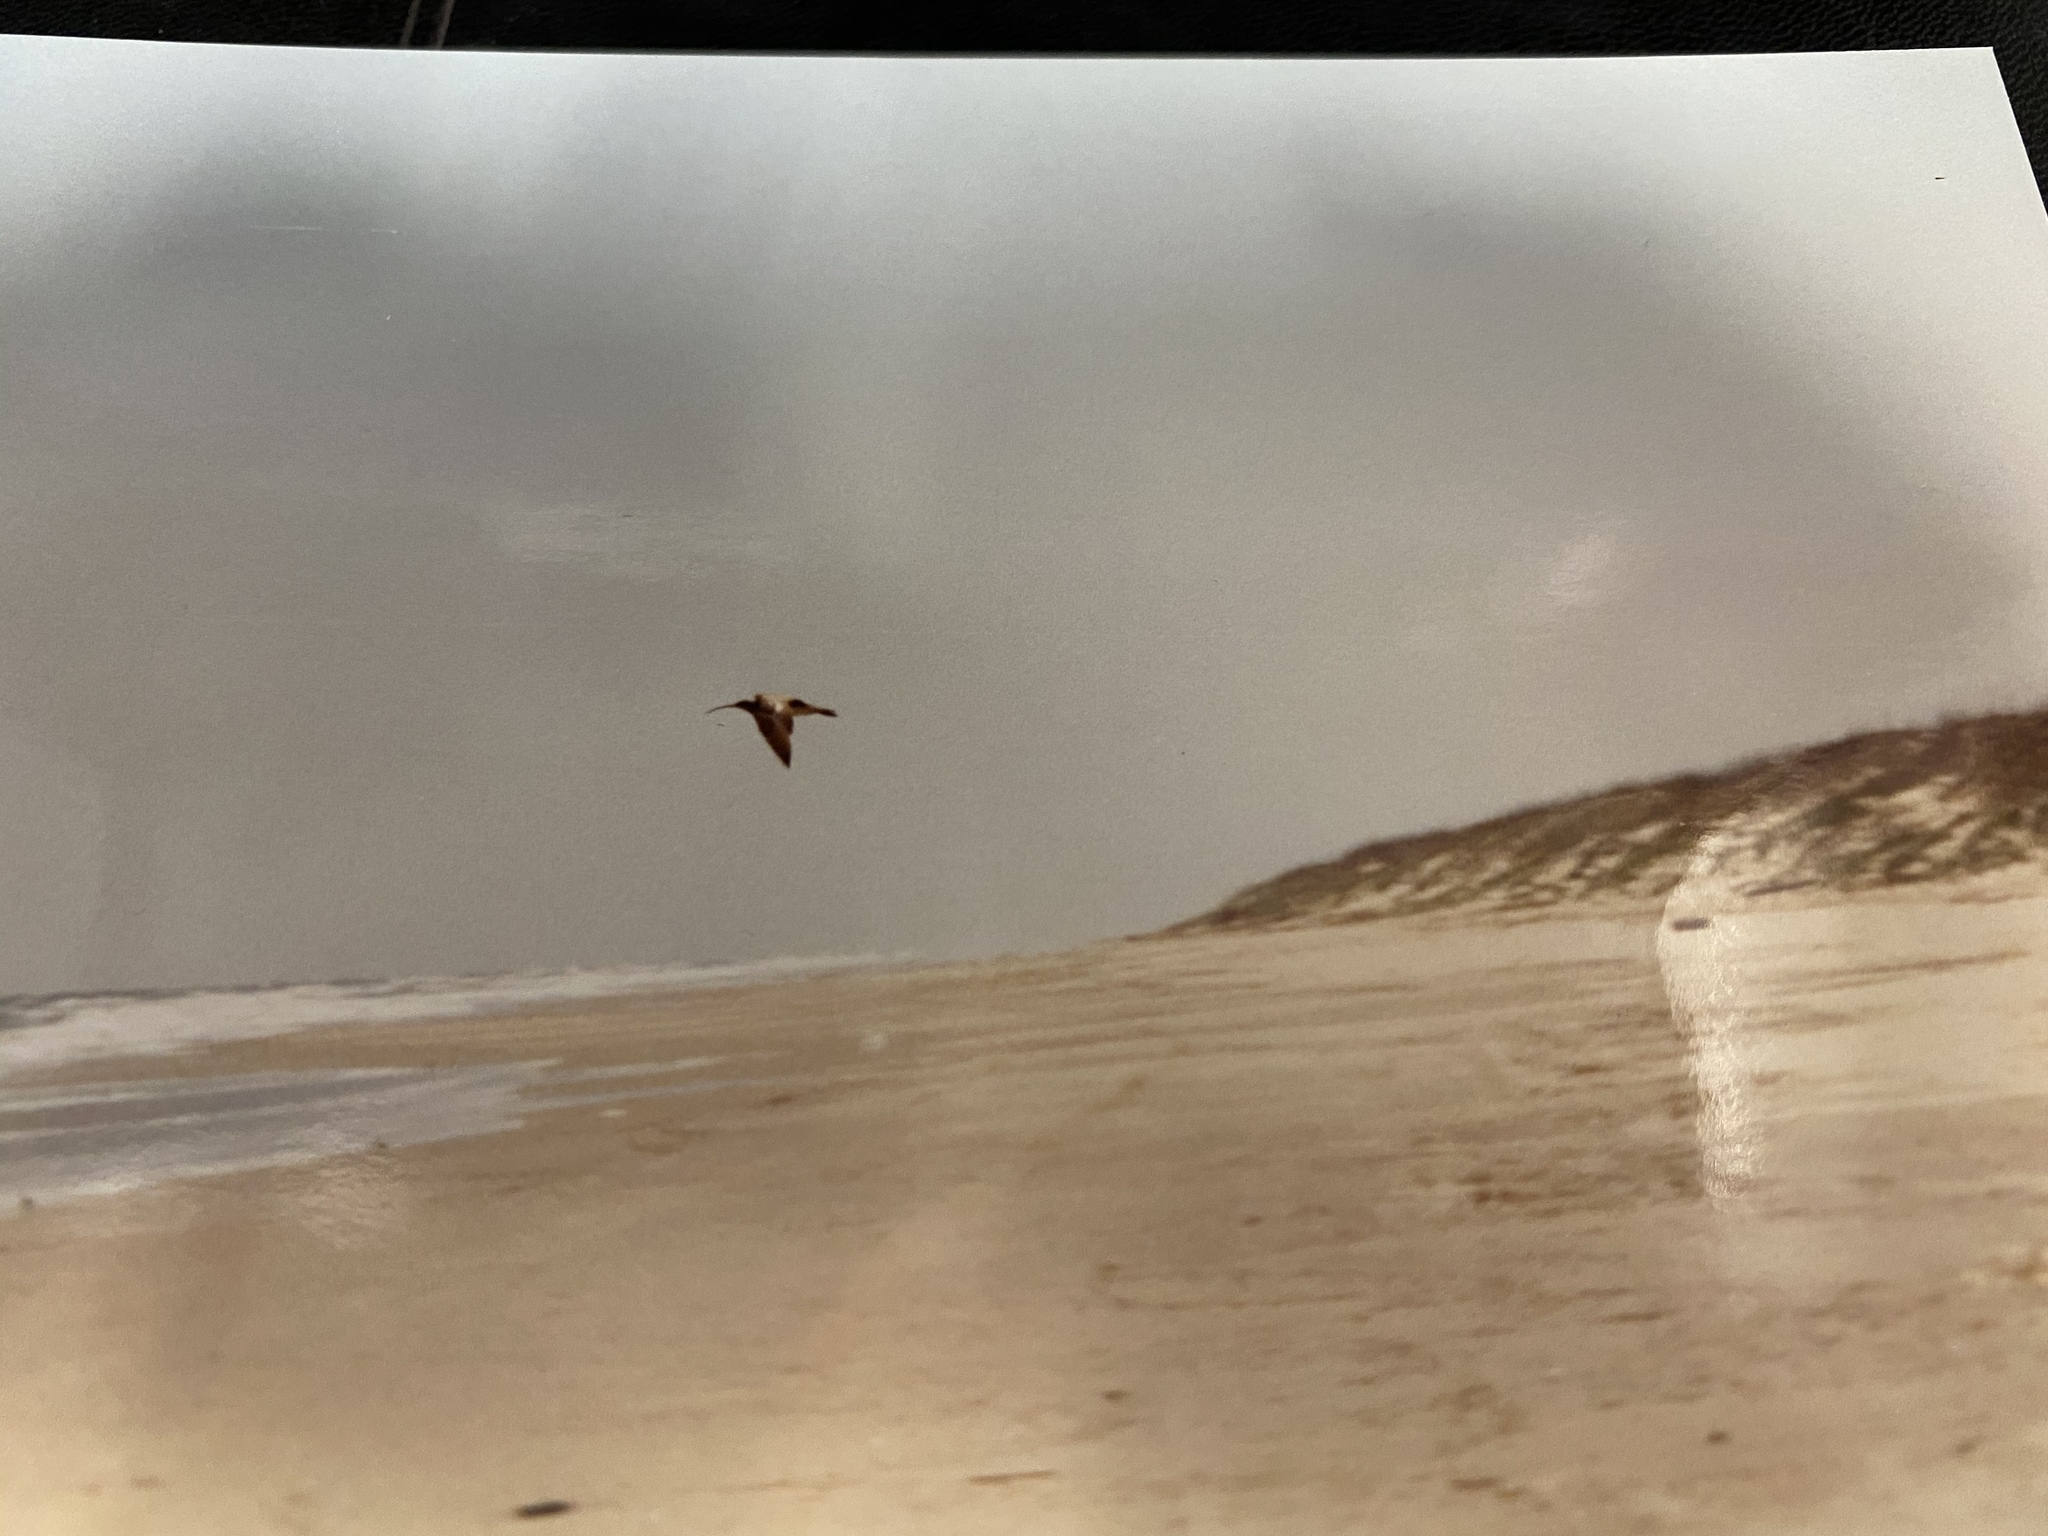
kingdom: Animalia
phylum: Chordata
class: Aves
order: Charadriiformes
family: Scolopacidae
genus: Numenius
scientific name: Numenius phaeopus
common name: Whimbrel
